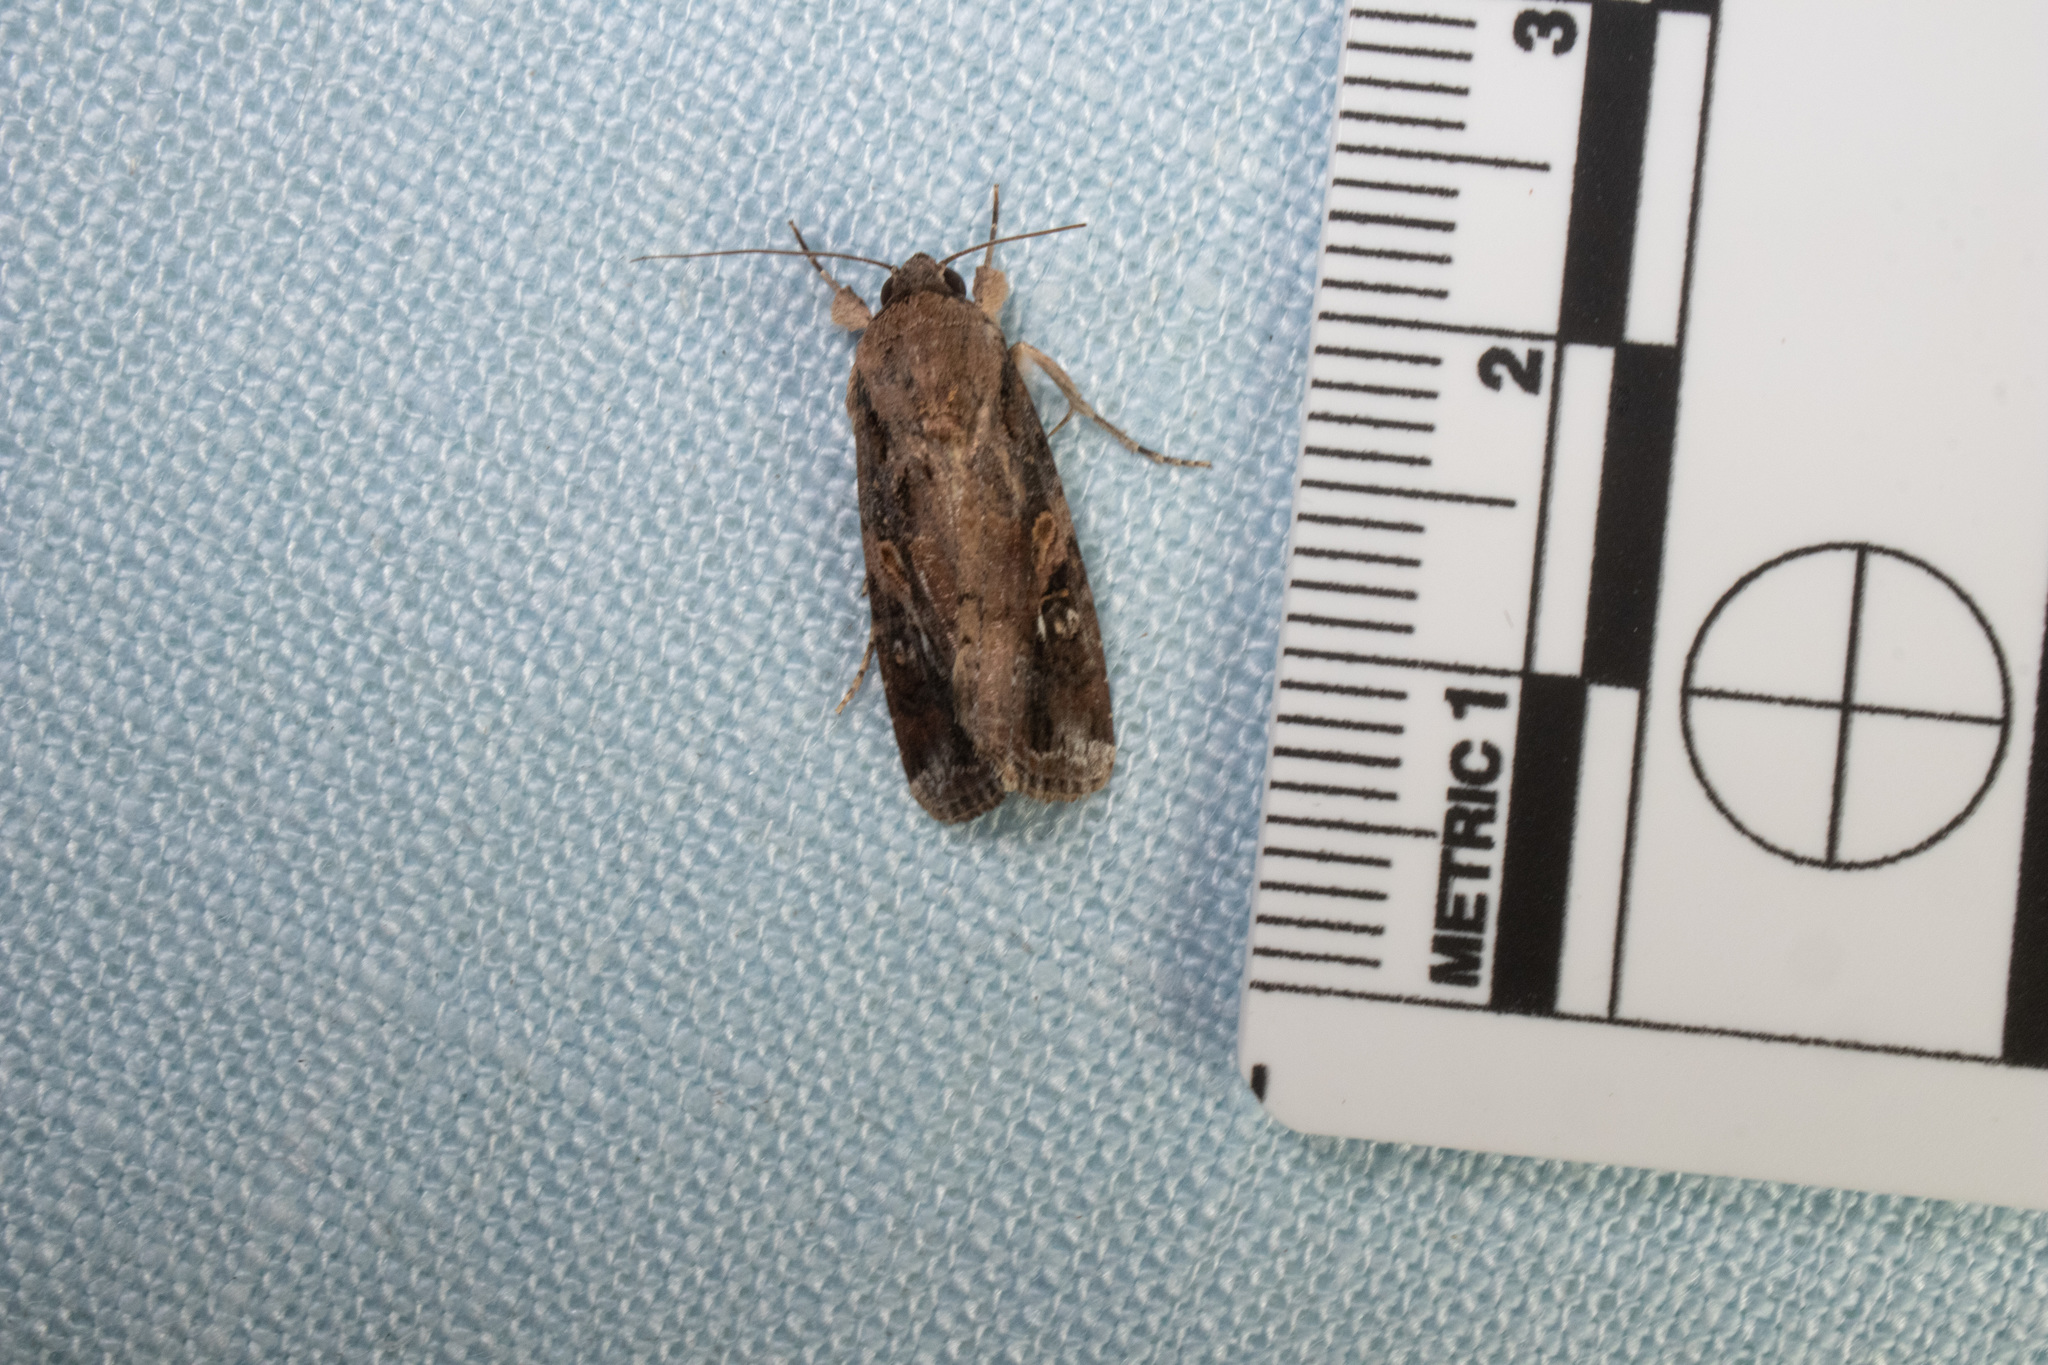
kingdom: Animalia
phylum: Arthropoda
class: Insecta
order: Lepidoptera
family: Noctuidae
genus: Spodoptera
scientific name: Spodoptera frugiperda
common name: Fall armyworm
